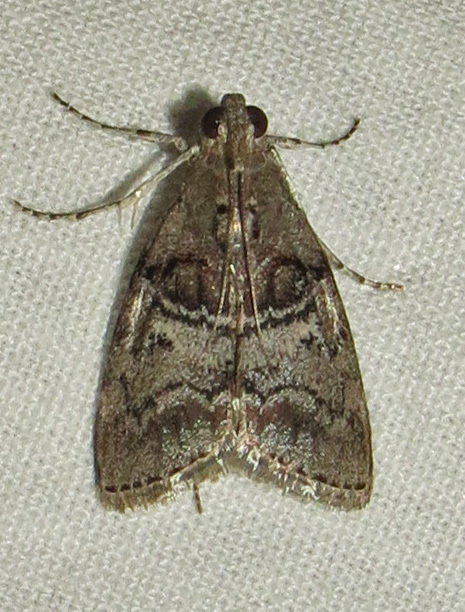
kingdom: Animalia
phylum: Arthropoda
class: Insecta
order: Lepidoptera
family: Pyralidae
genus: Pococera
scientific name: Pococera asperatella
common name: Maple webworm moth
